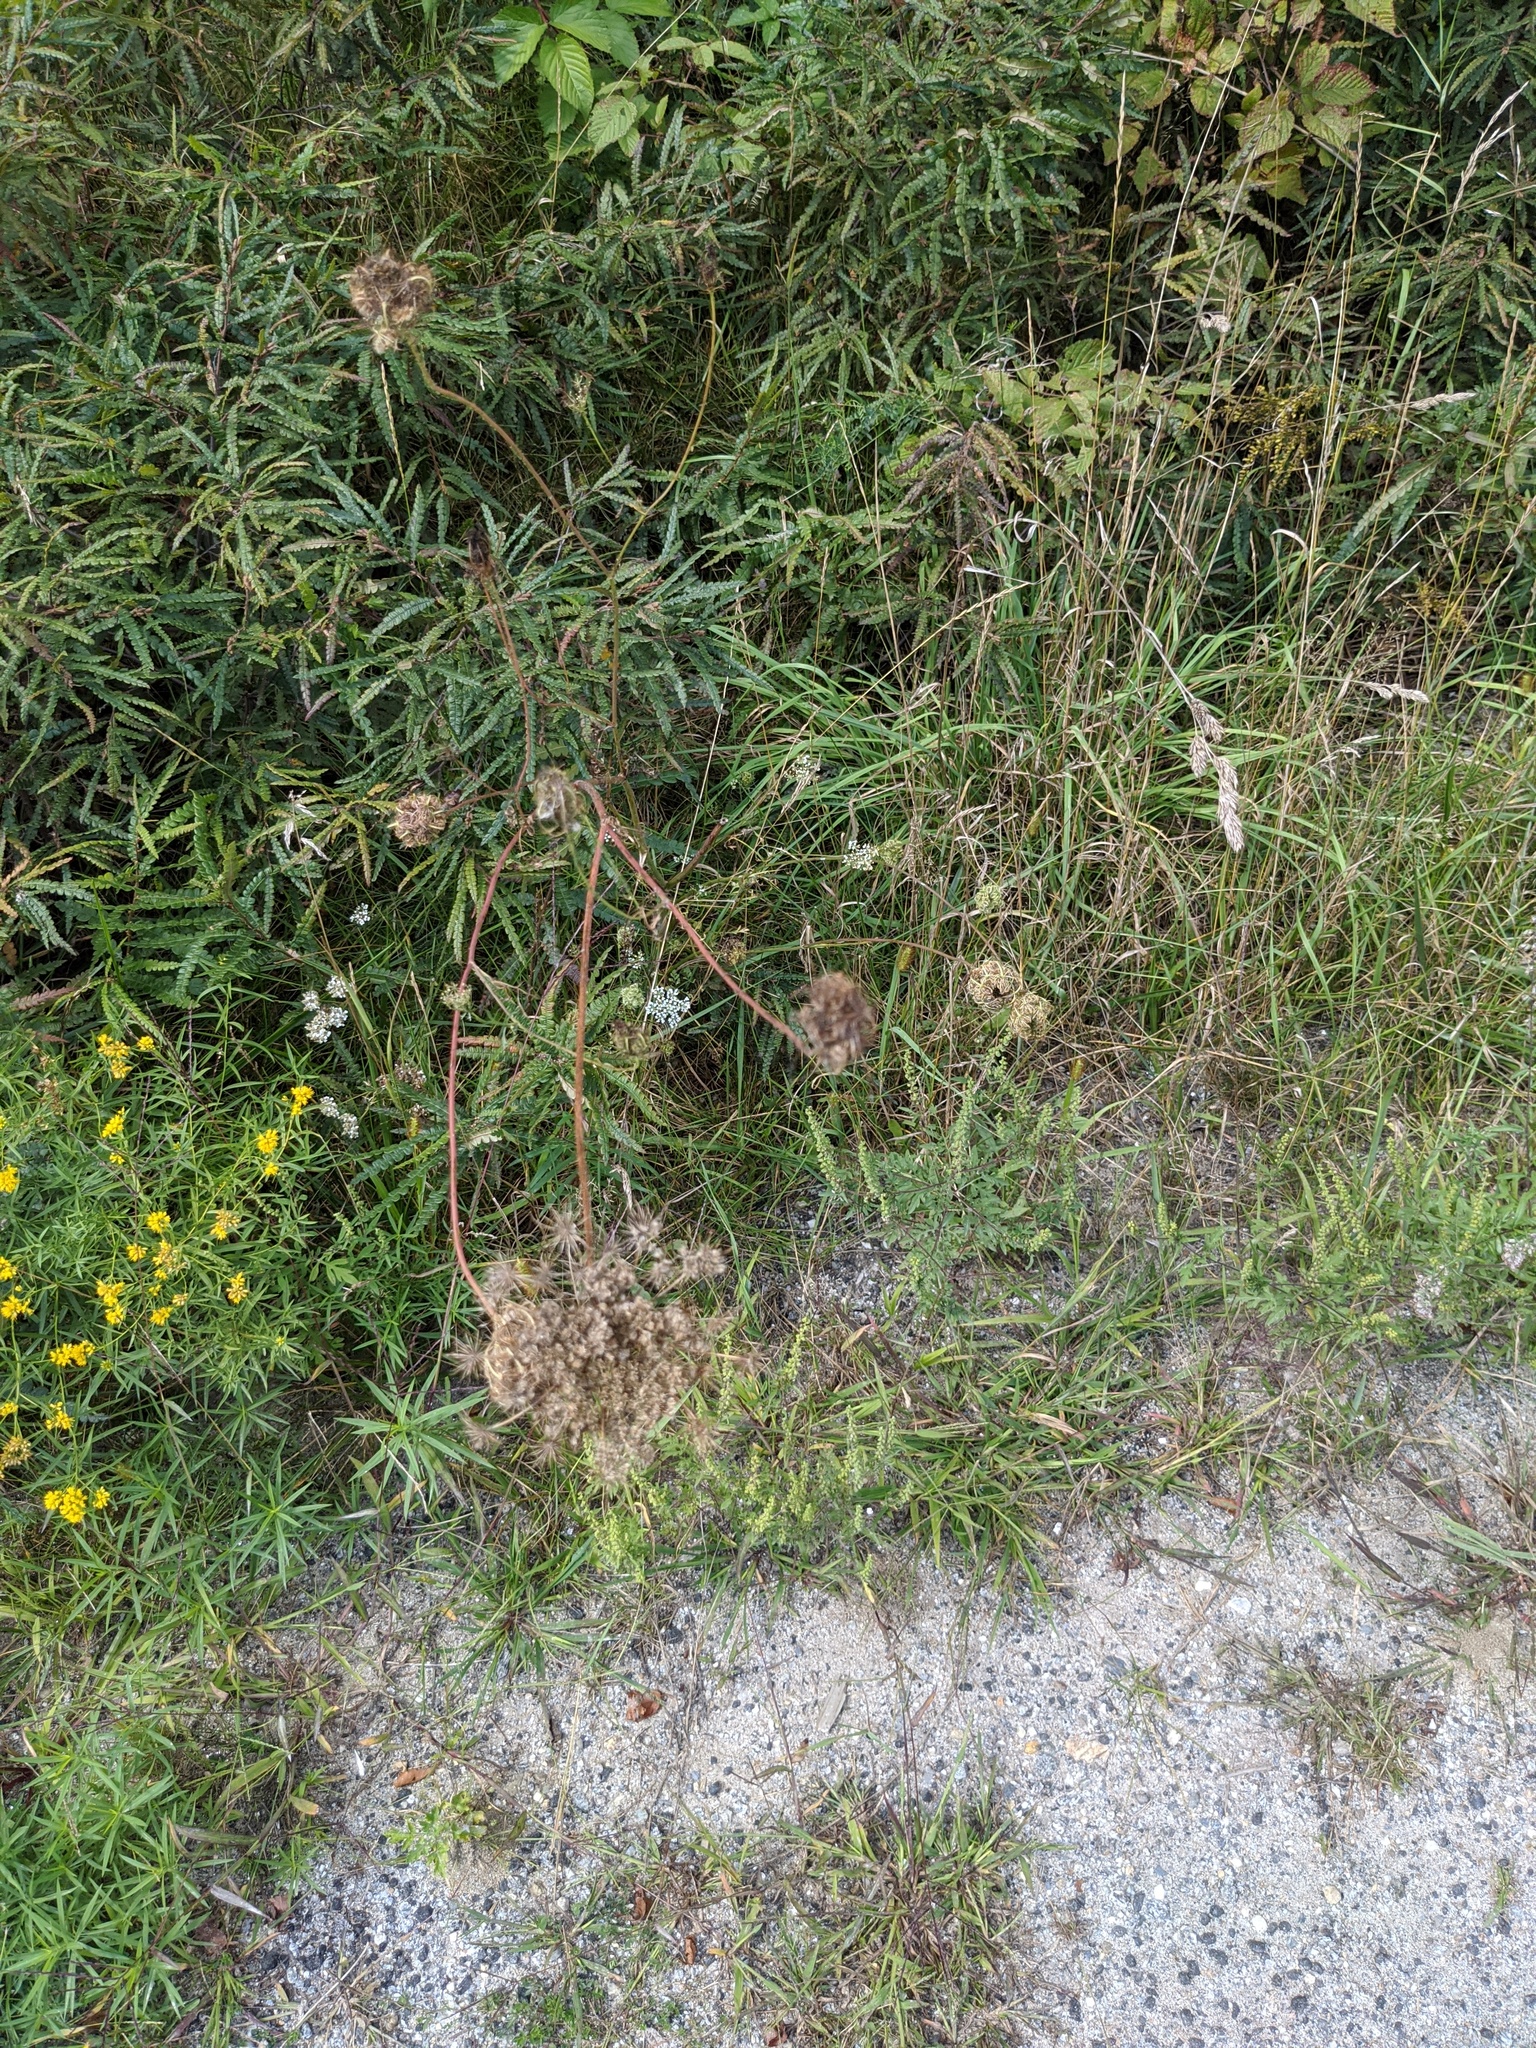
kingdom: Plantae
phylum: Tracheophyta
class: Magnoliopsida
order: Apiales
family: Apiaceae
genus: Daucus
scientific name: Daucus carota
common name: Wild carrot
